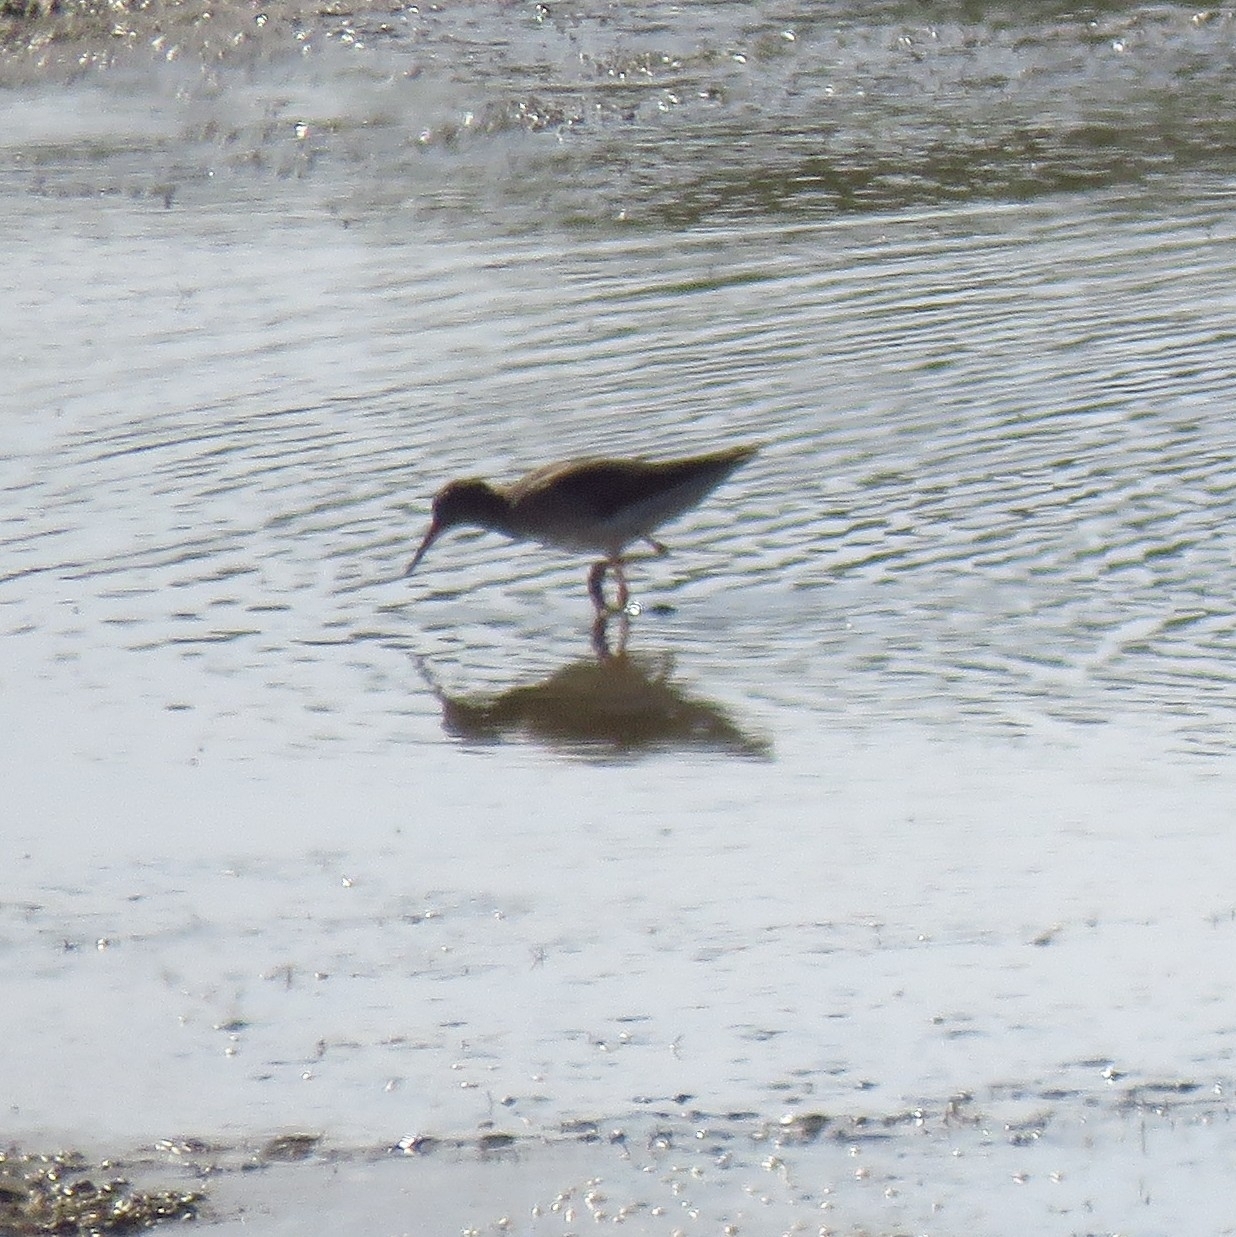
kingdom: Animalia
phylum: Chordata
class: Aves
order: Charadriiformes
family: Scolopacidae
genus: Tringa
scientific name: Tringa totanus
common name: Common redshank
